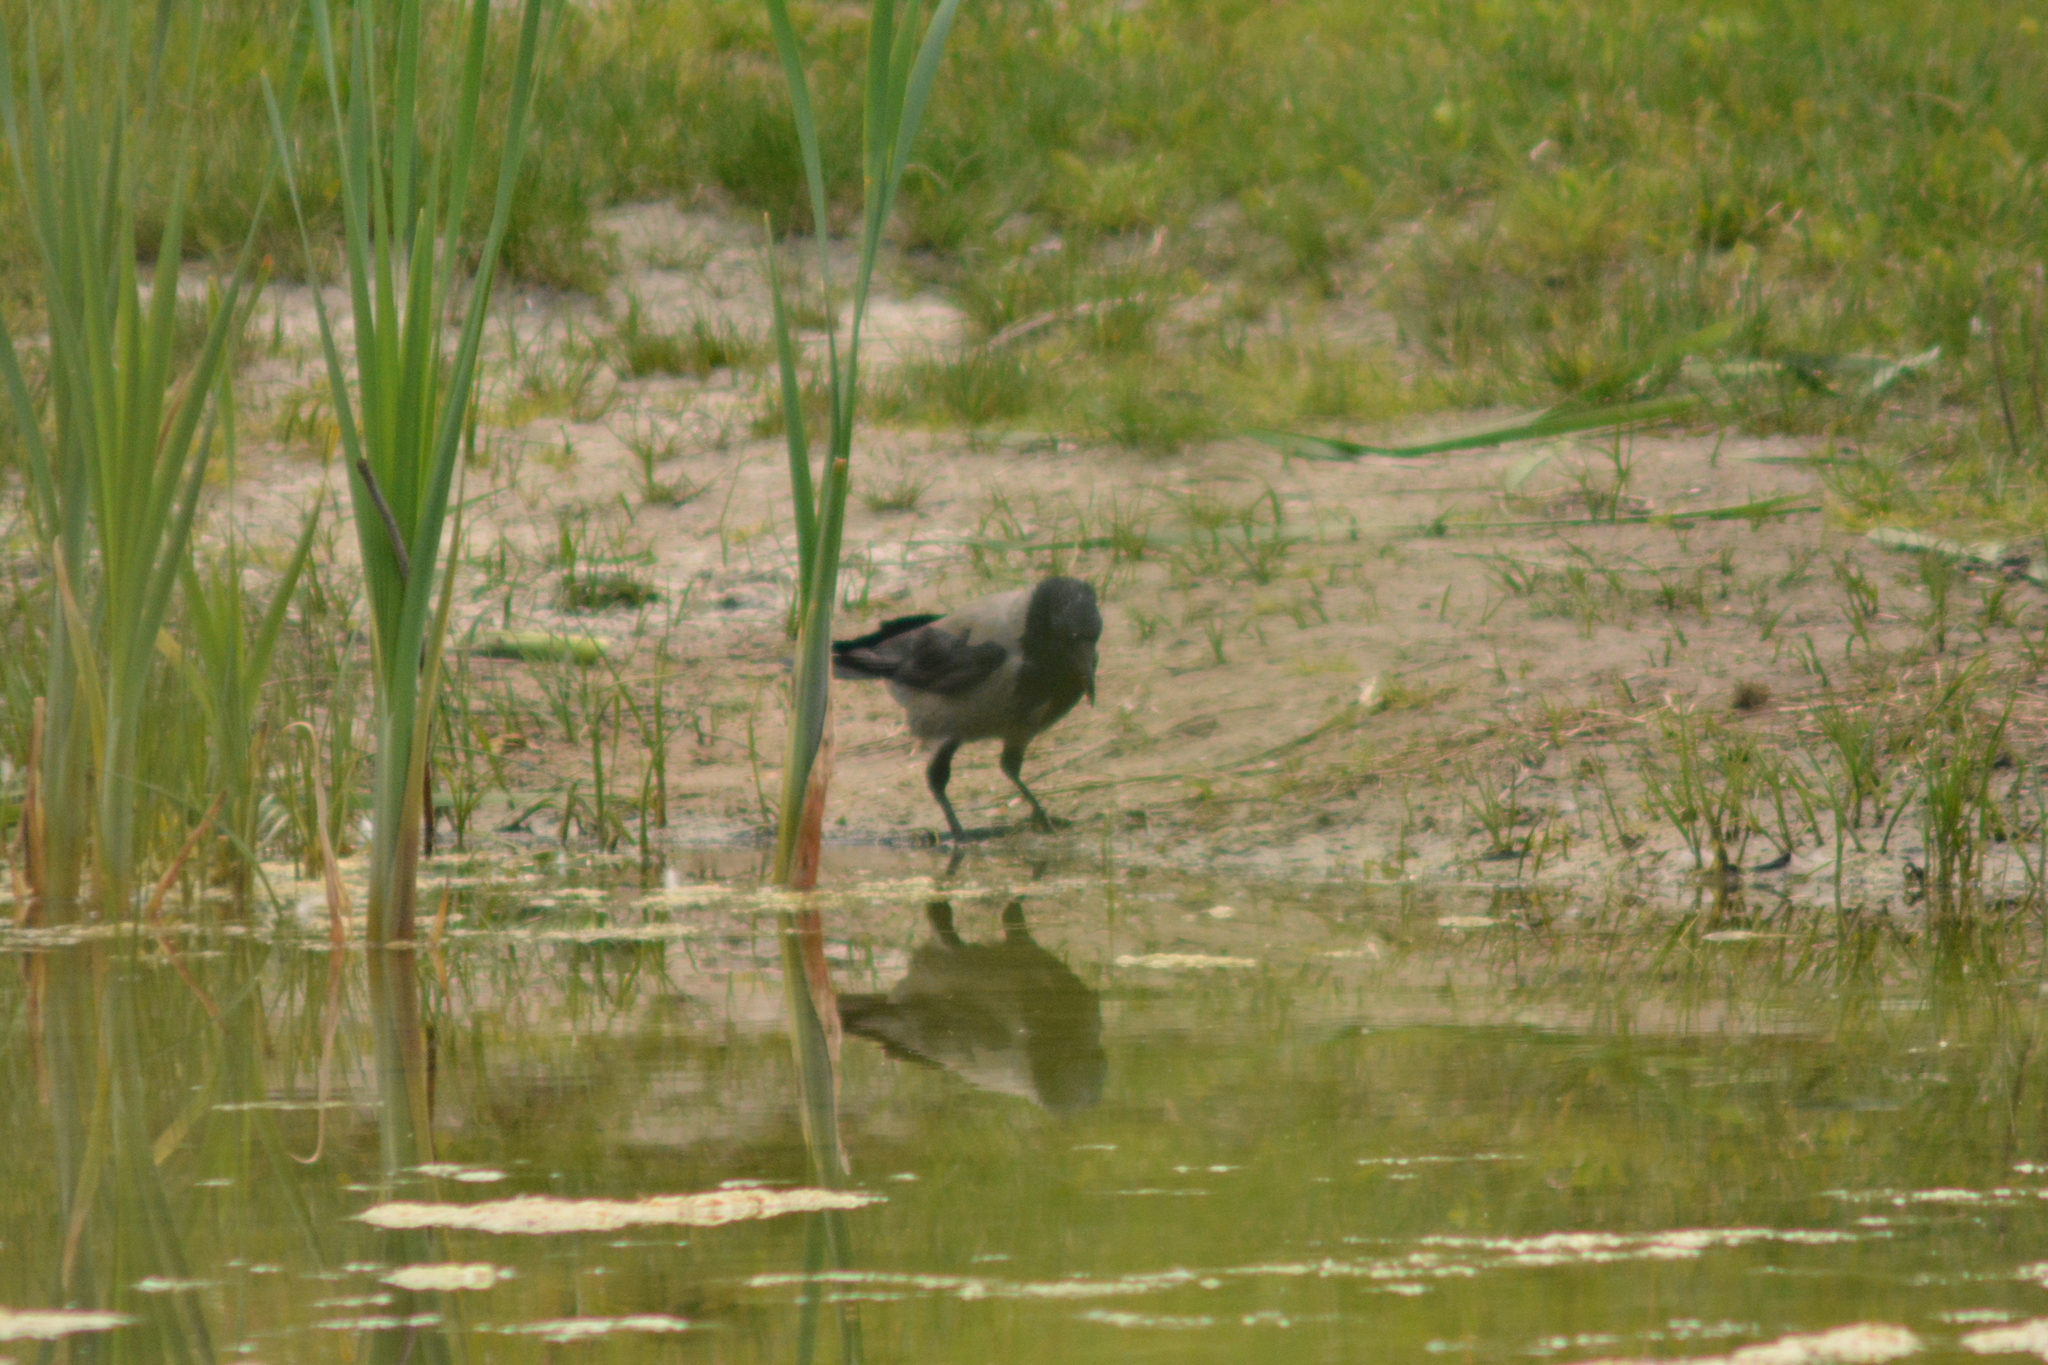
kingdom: Animalia
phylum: Chordata
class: Aves
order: Passeriformes
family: Corvidae
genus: Corvus
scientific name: Corvus cornix
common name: Hooded crow
